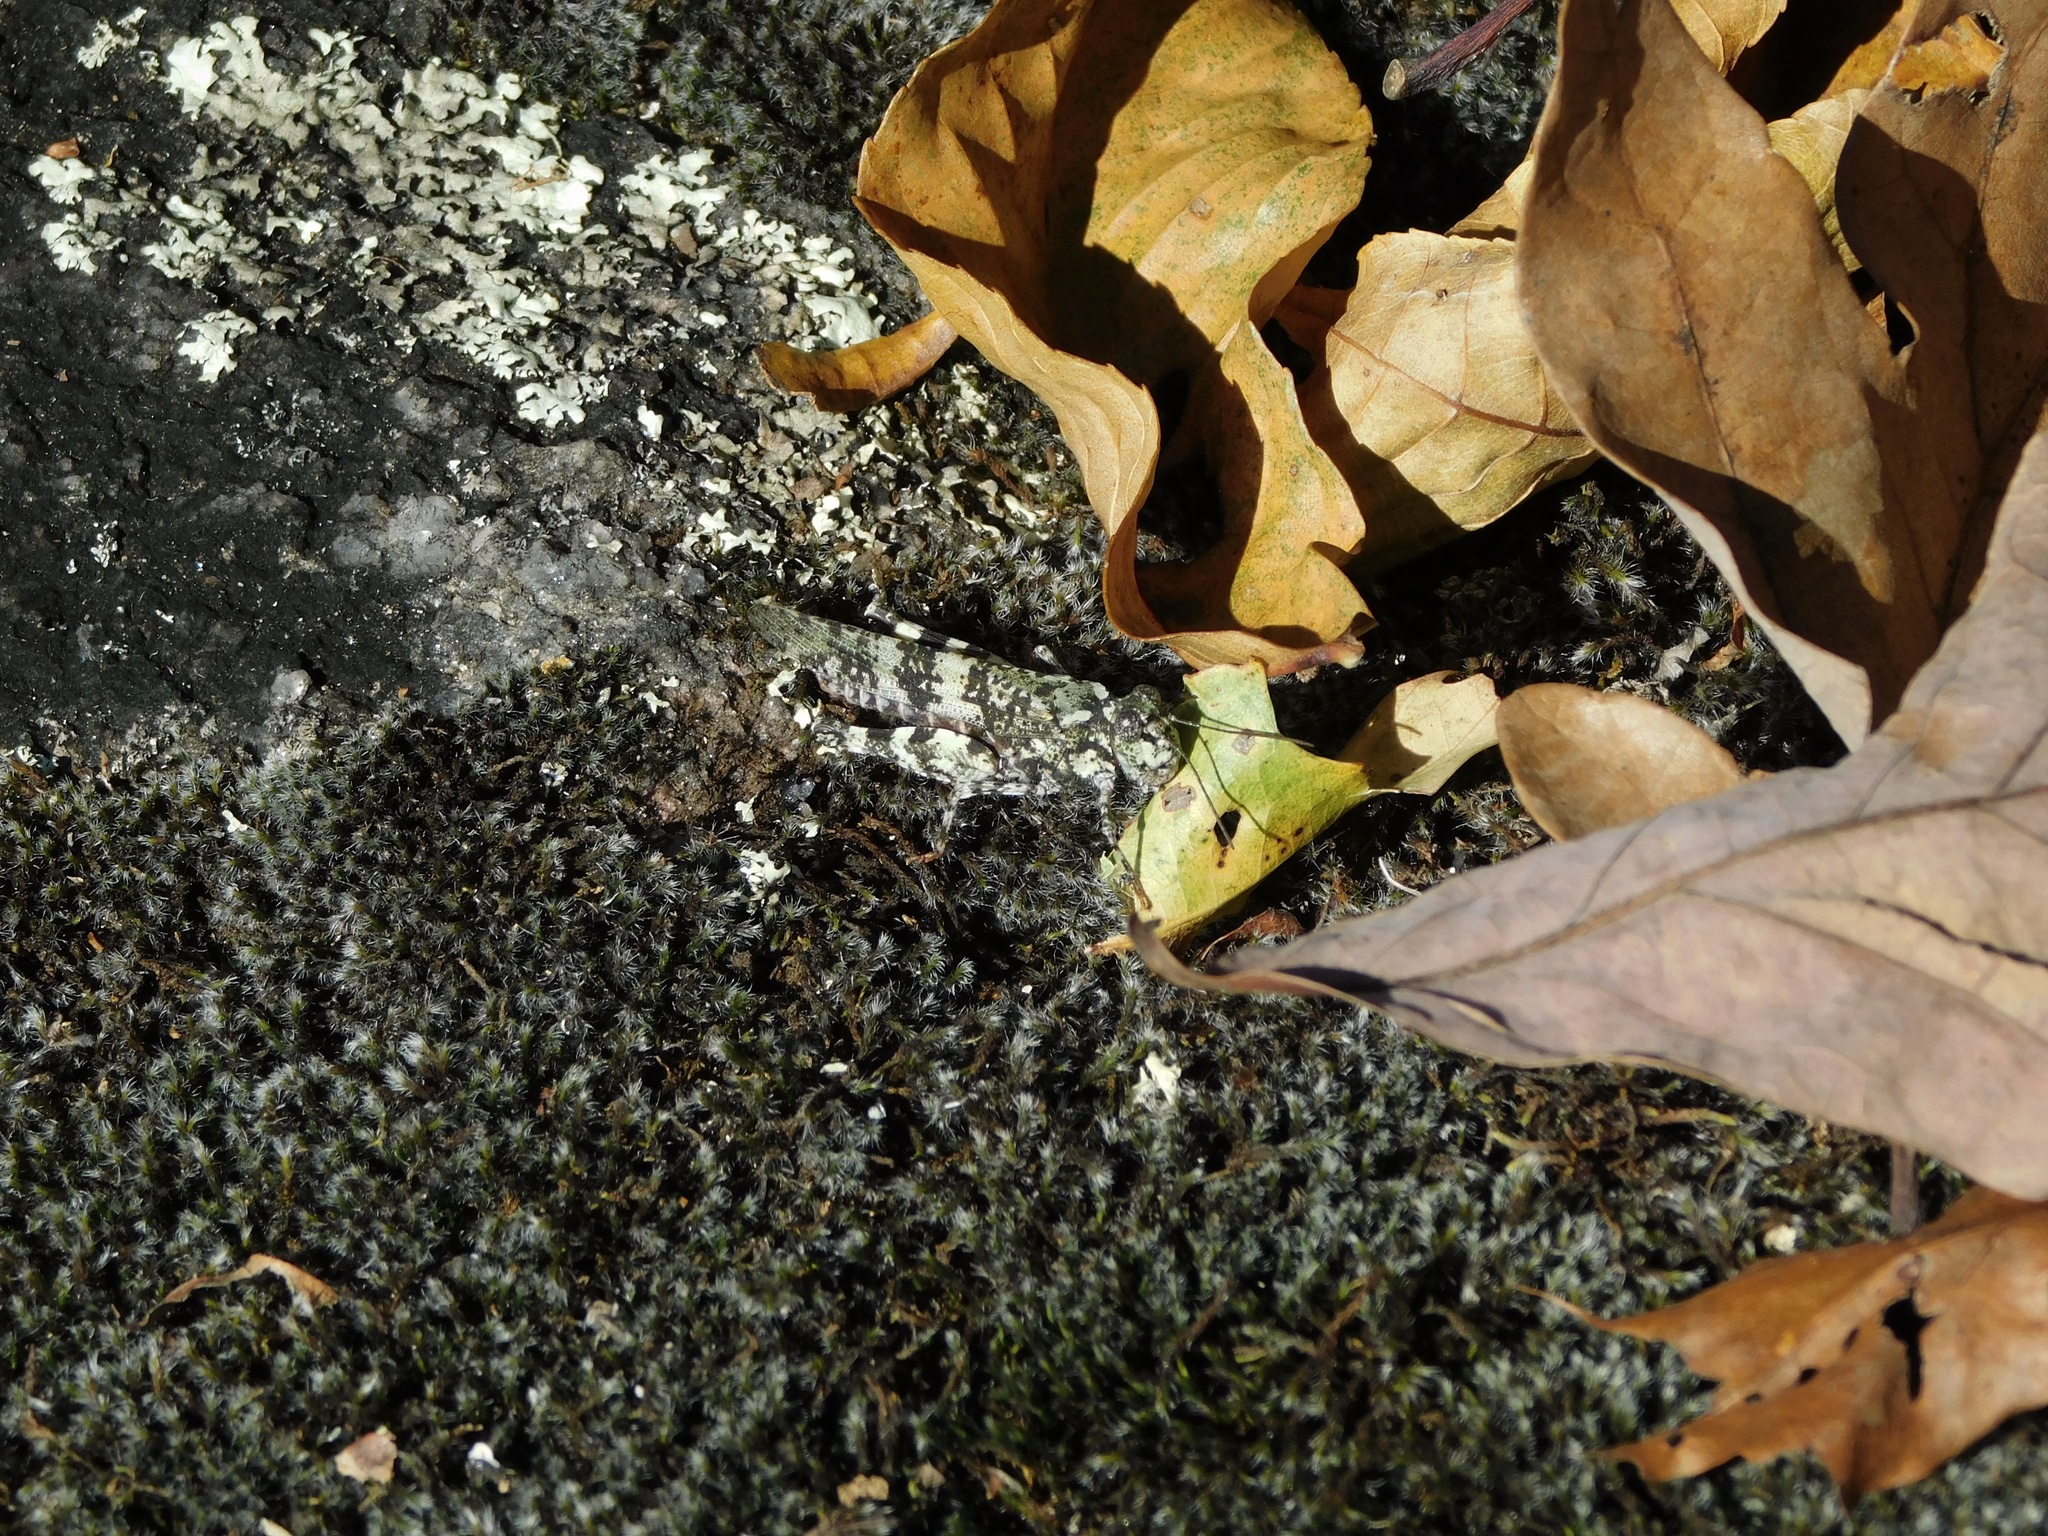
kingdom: Animalia
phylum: Arthropoda
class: Insecta
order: Orthoptera
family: Acrididae
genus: Trimerotropis
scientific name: Trimerotropis saxatilis
